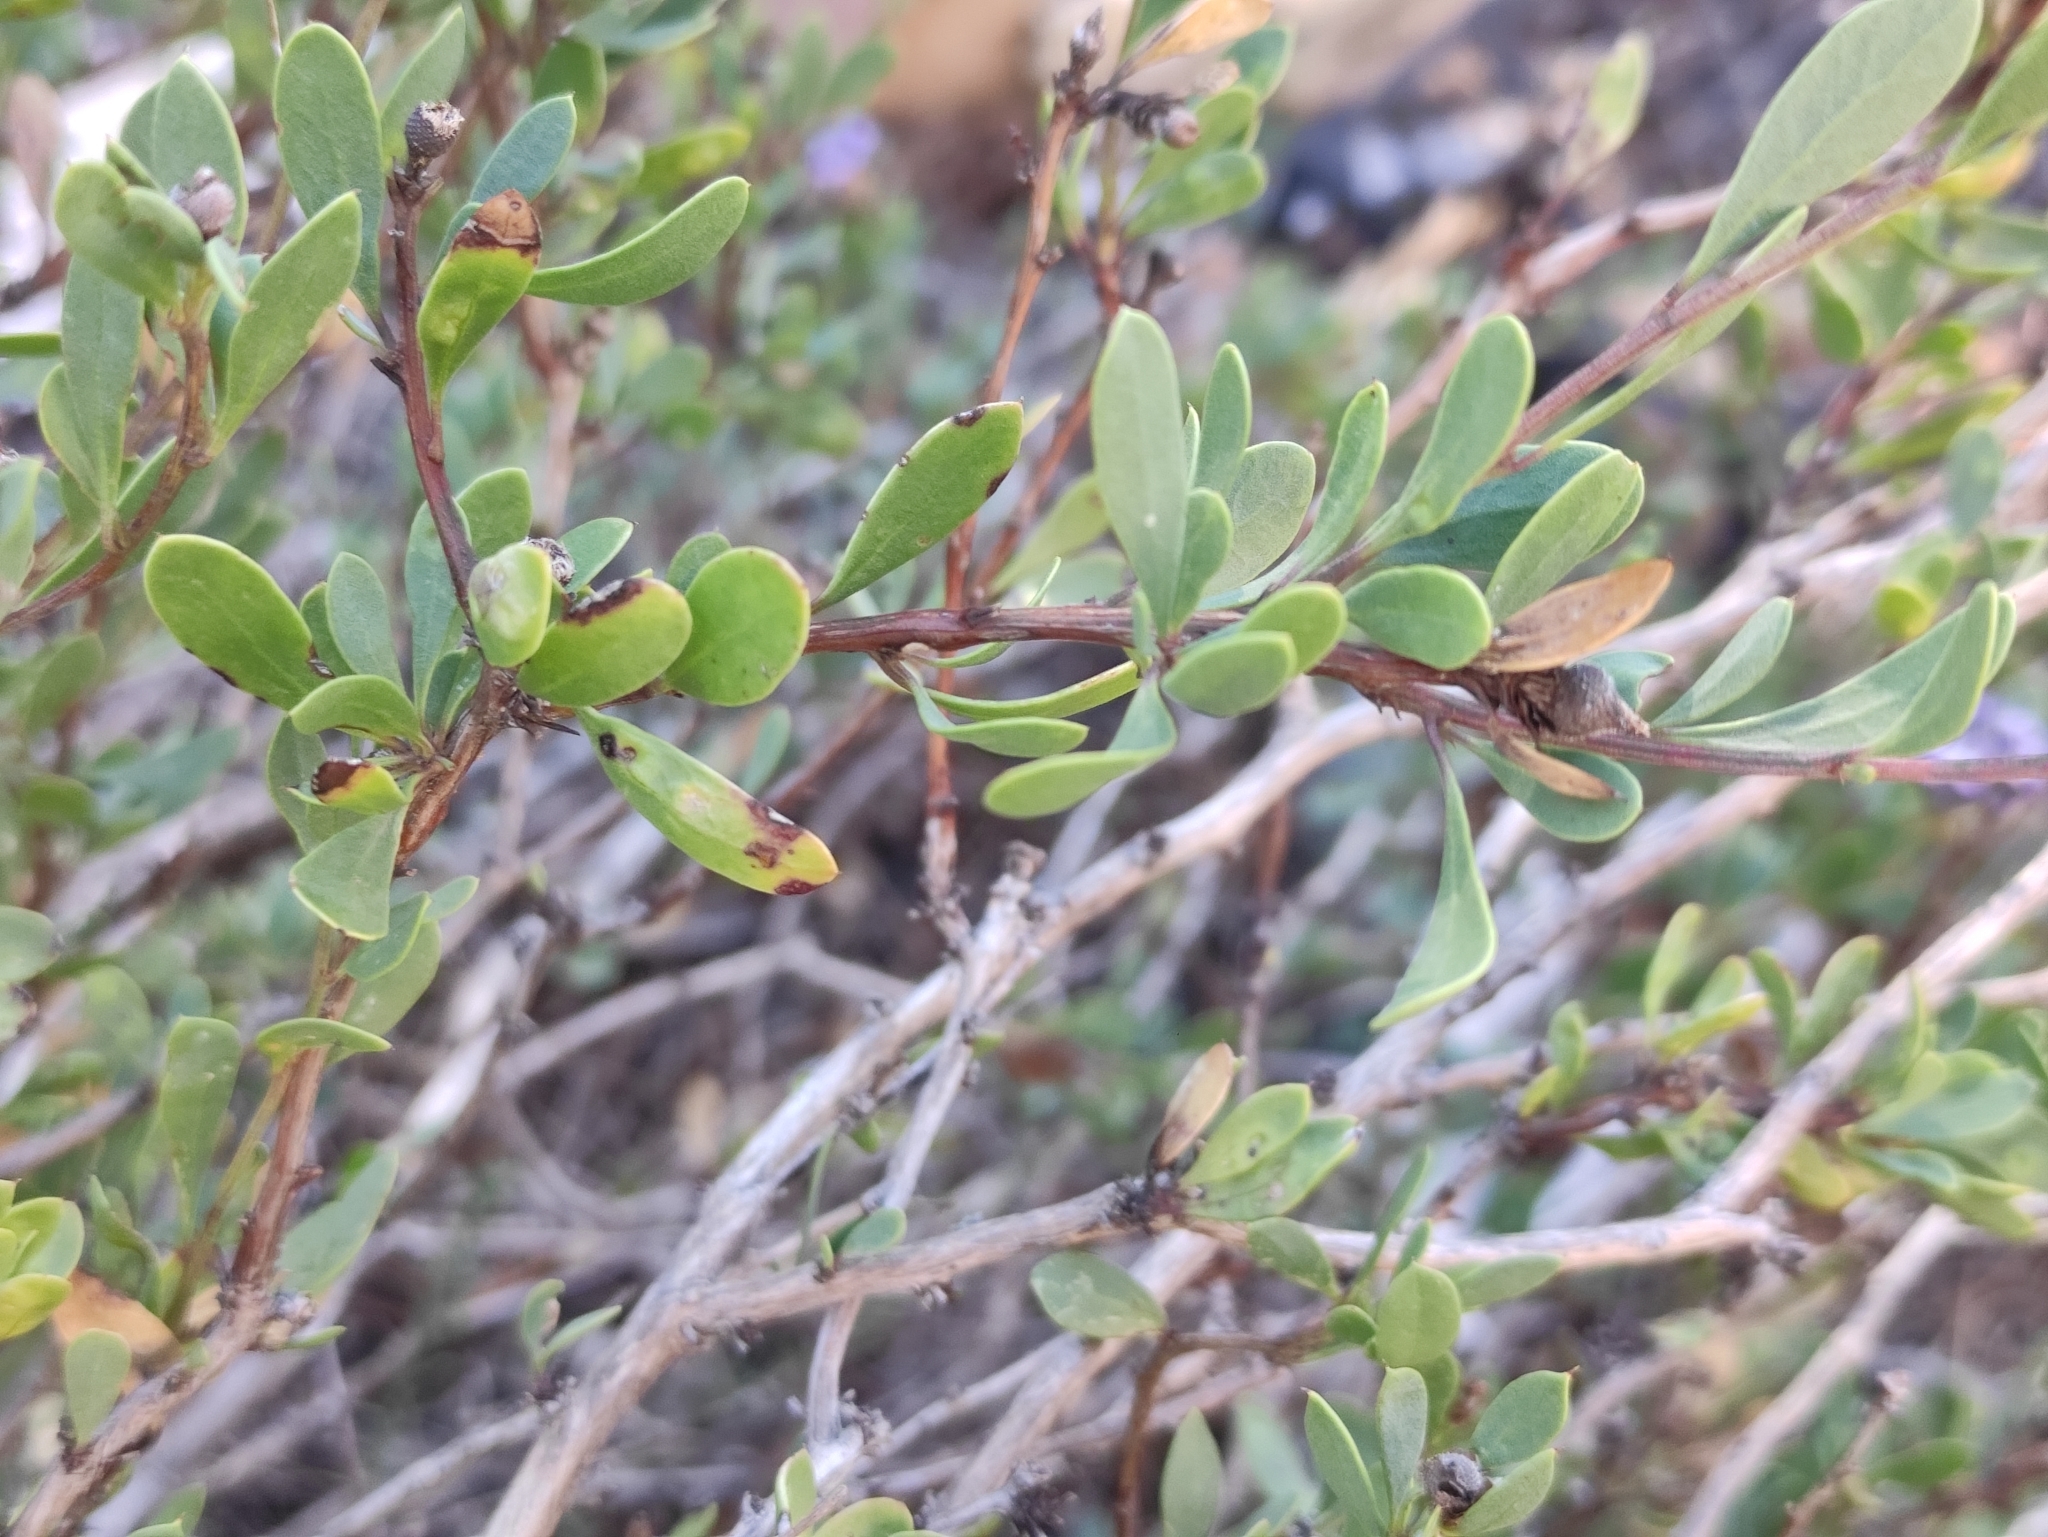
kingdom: Plantae
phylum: Tracheophyta
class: Magnoliopsida
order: Lamiales
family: Plantaginaceae
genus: Globularia
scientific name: Globularia alypum
